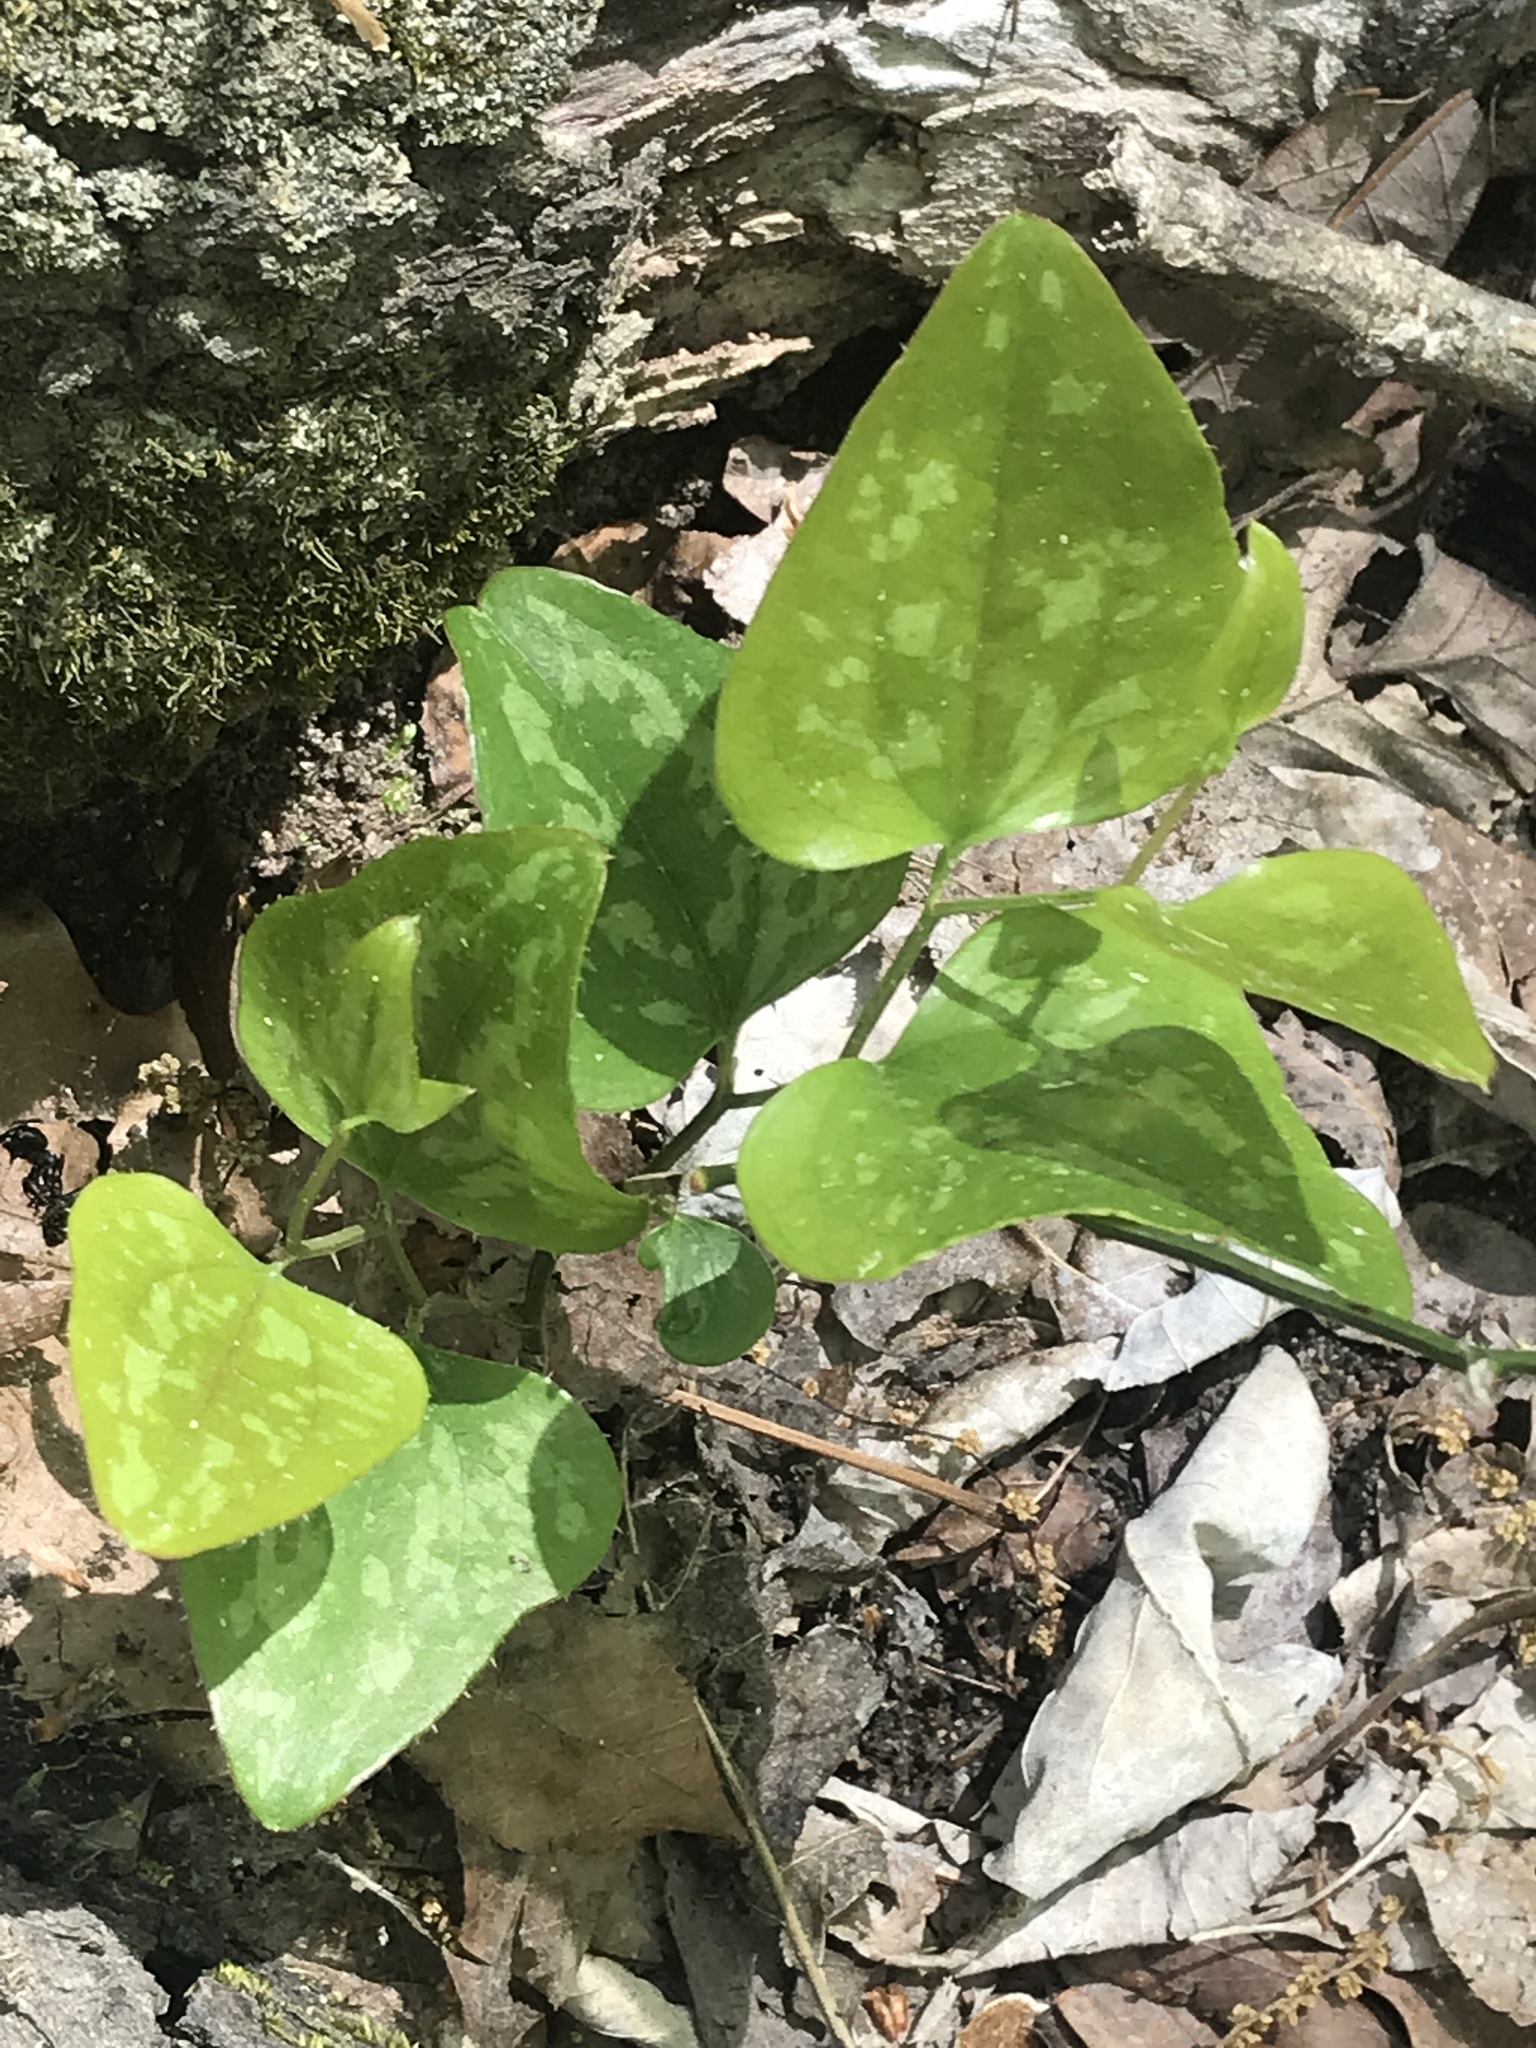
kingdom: Plantae
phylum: Tracheophyta
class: Liliopsida
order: Liliales
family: Smilacaceae
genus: Smilax
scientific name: Smilax bona-nox
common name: Catbrier
